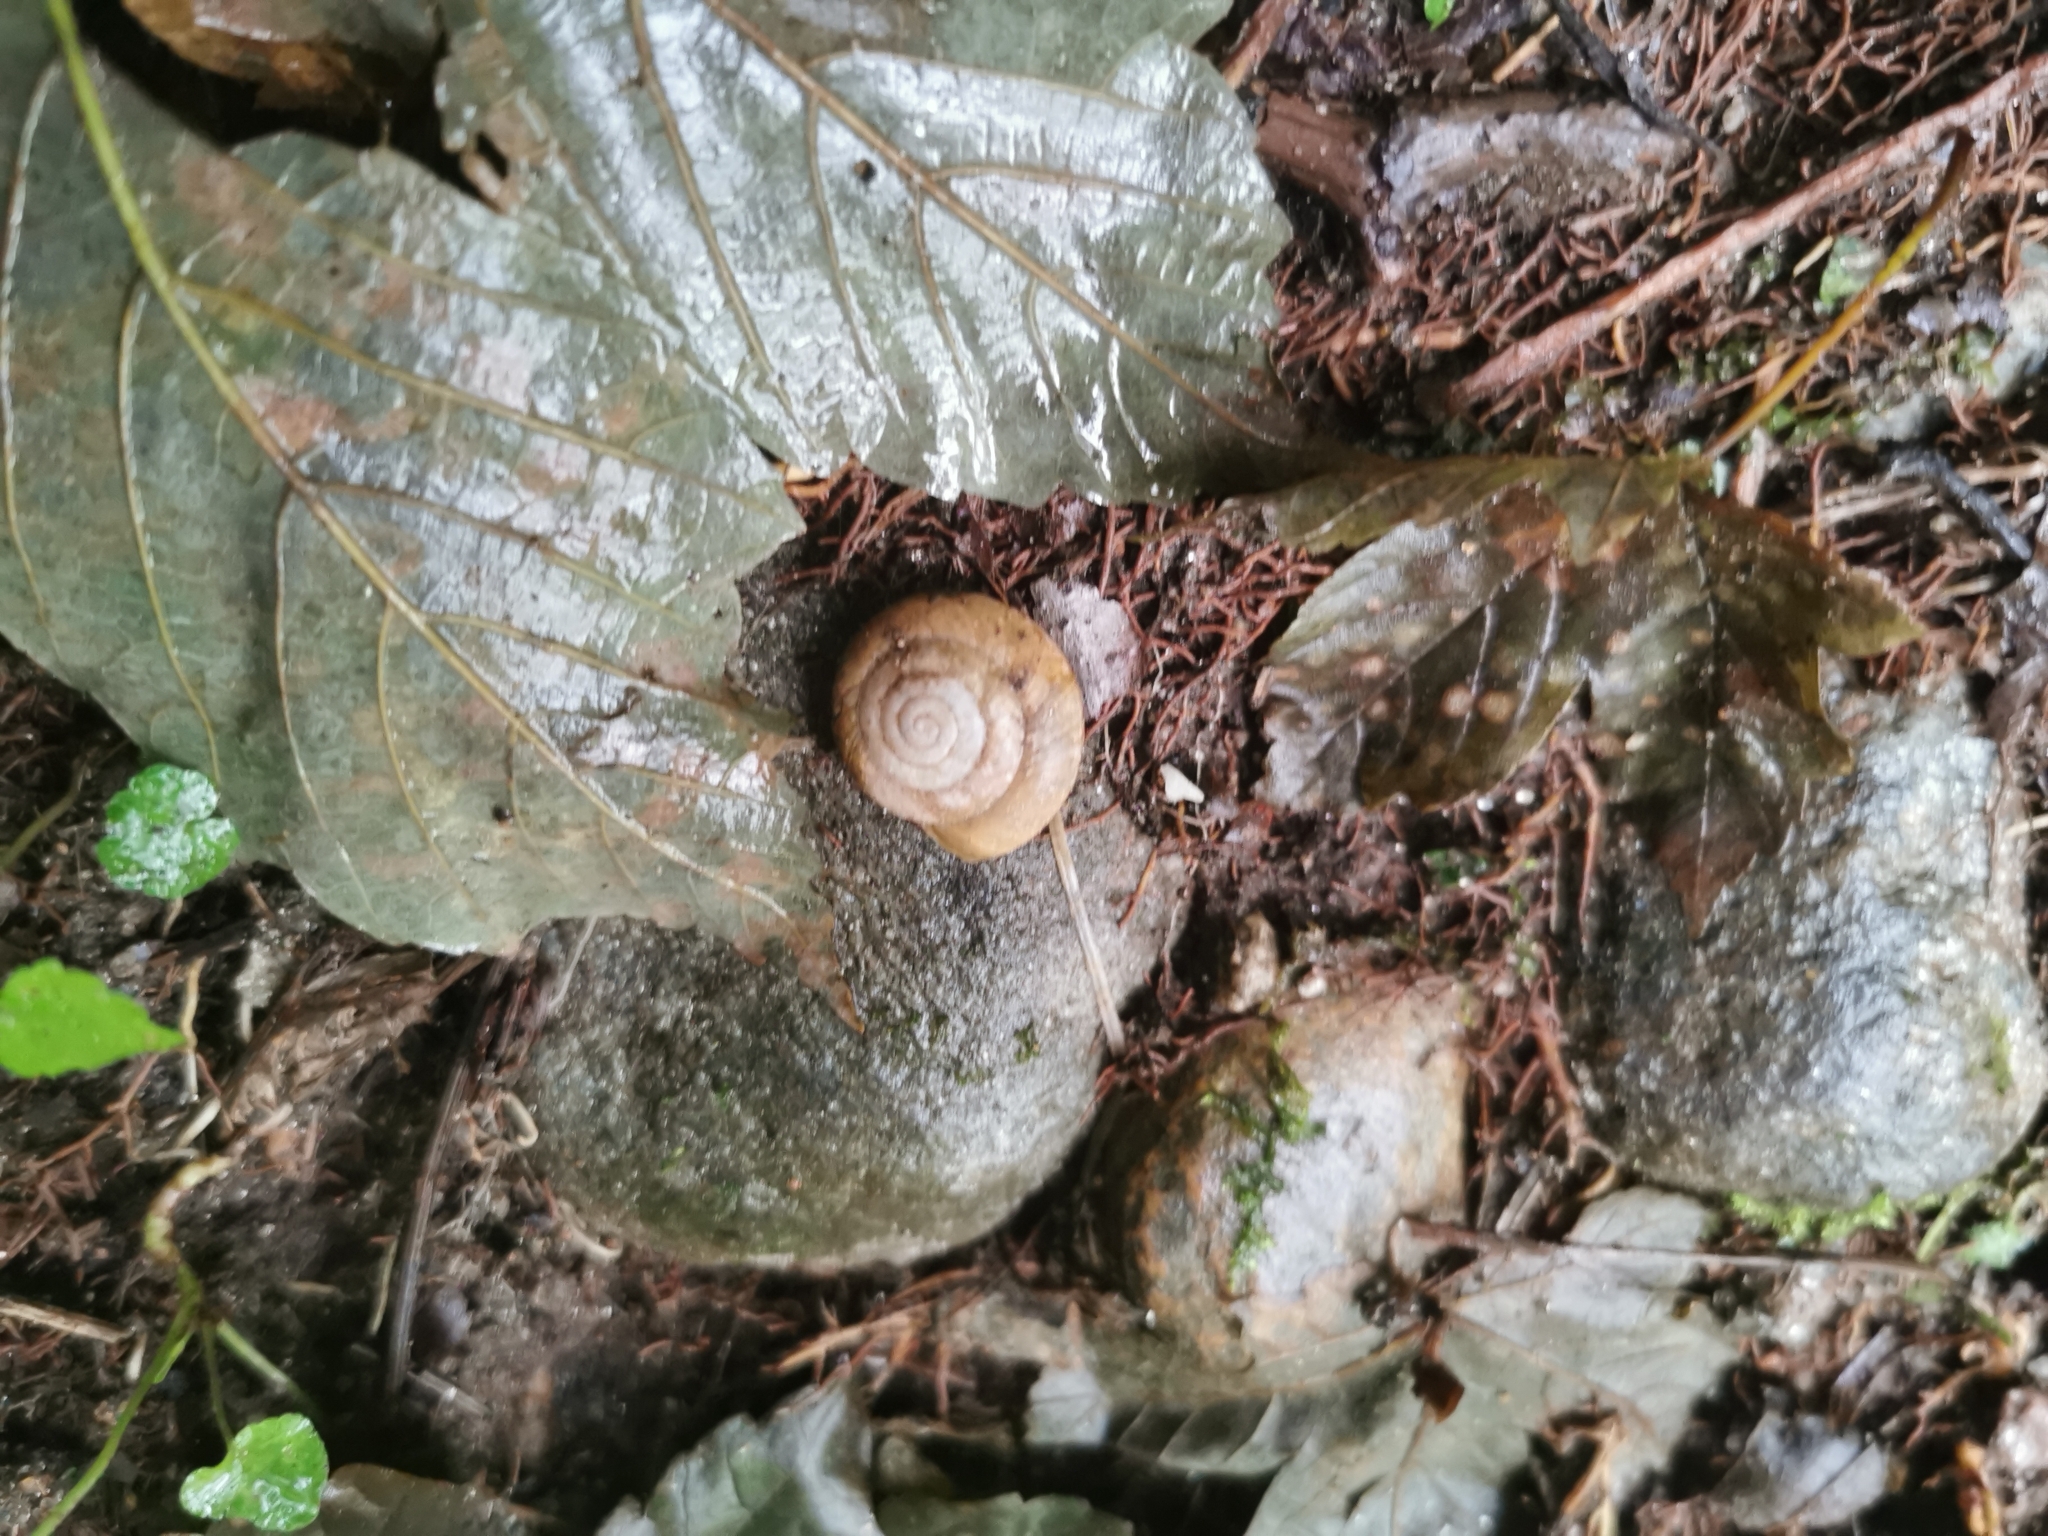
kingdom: Animalia
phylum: Mollusca
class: Gastropoda
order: Stylommatophora
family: Zonitidae
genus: Aegopis
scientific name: Aegopis verticillus
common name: Giant glass snail
